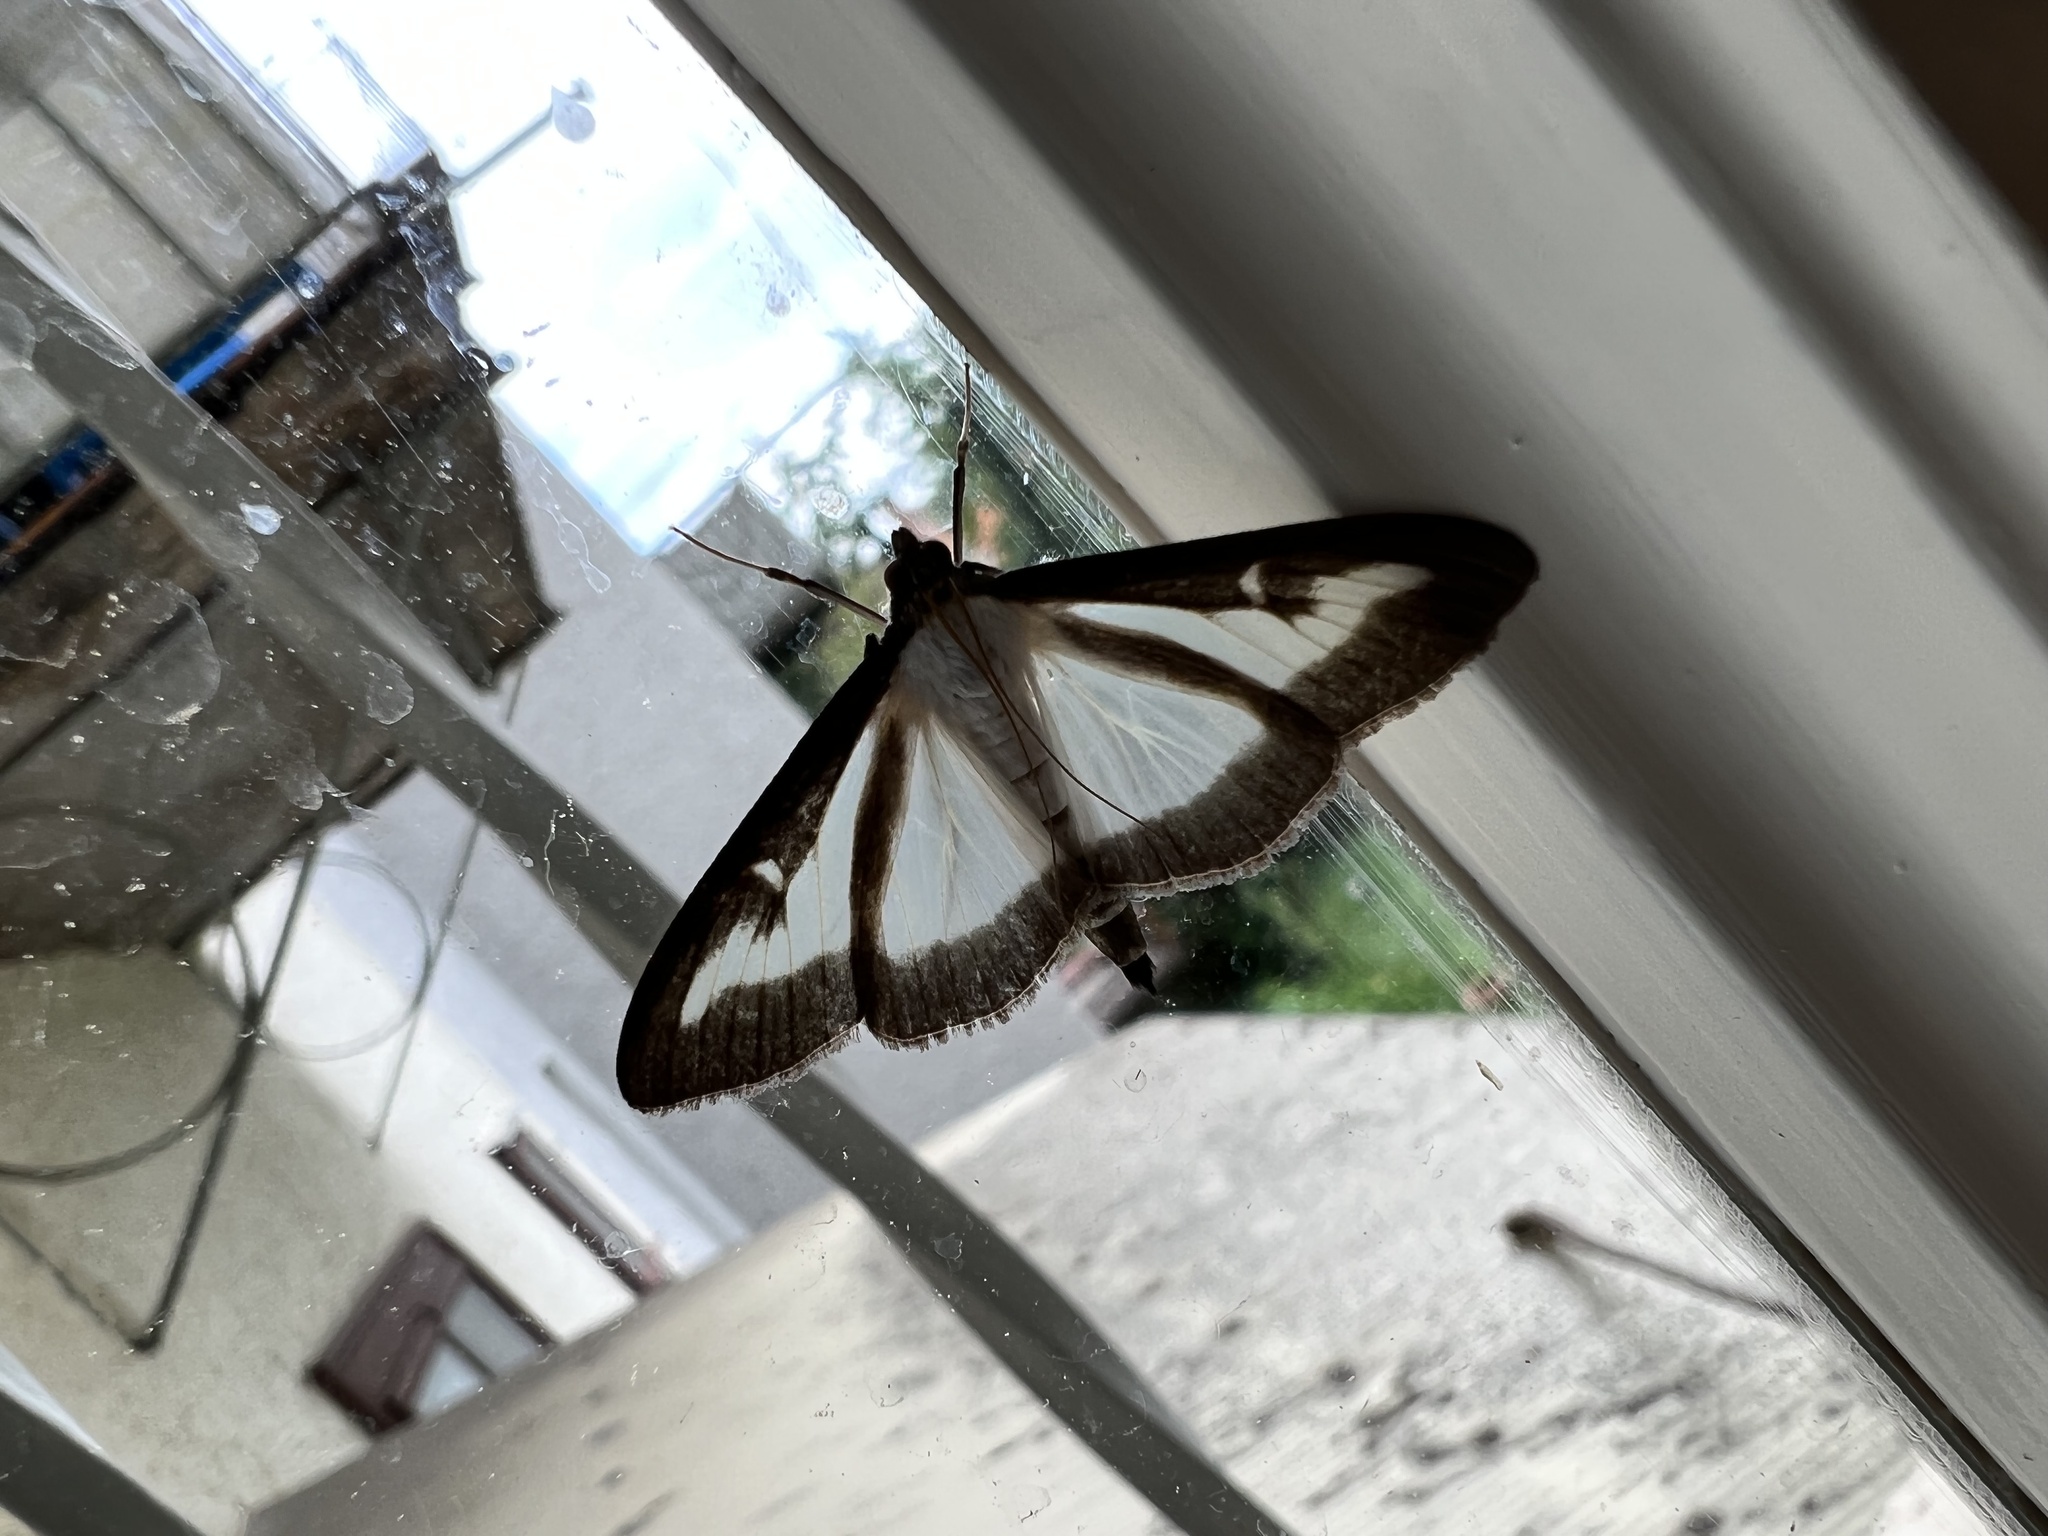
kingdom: Animalia
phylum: Arthropoda
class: Insecta
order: Lepidoptera
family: Crambidae
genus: Cydalima
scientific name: Cydalima perspectalis
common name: Box tree moth
